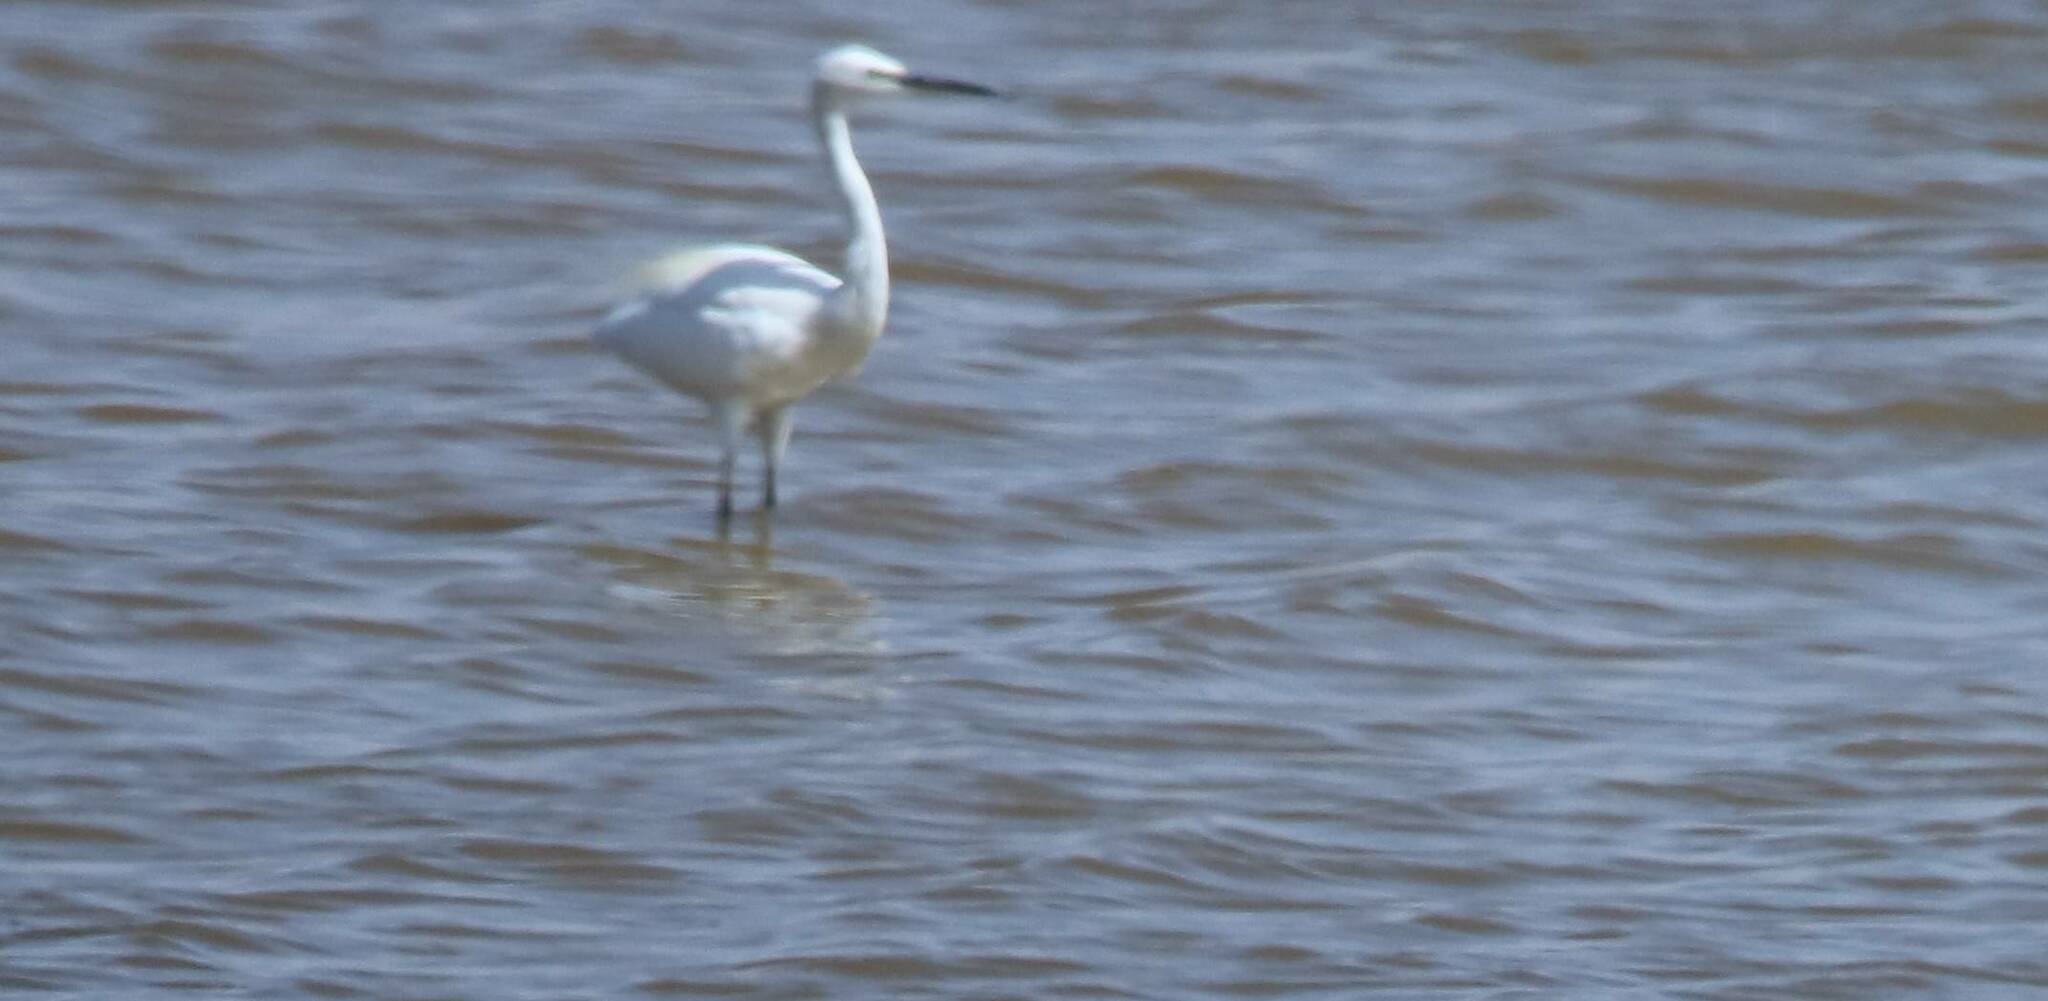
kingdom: Animalia
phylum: Chordata
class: Aves
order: Pelecaniformes
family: Ardeidae
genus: Egretta
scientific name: Egretta garzetta
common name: Little egret
